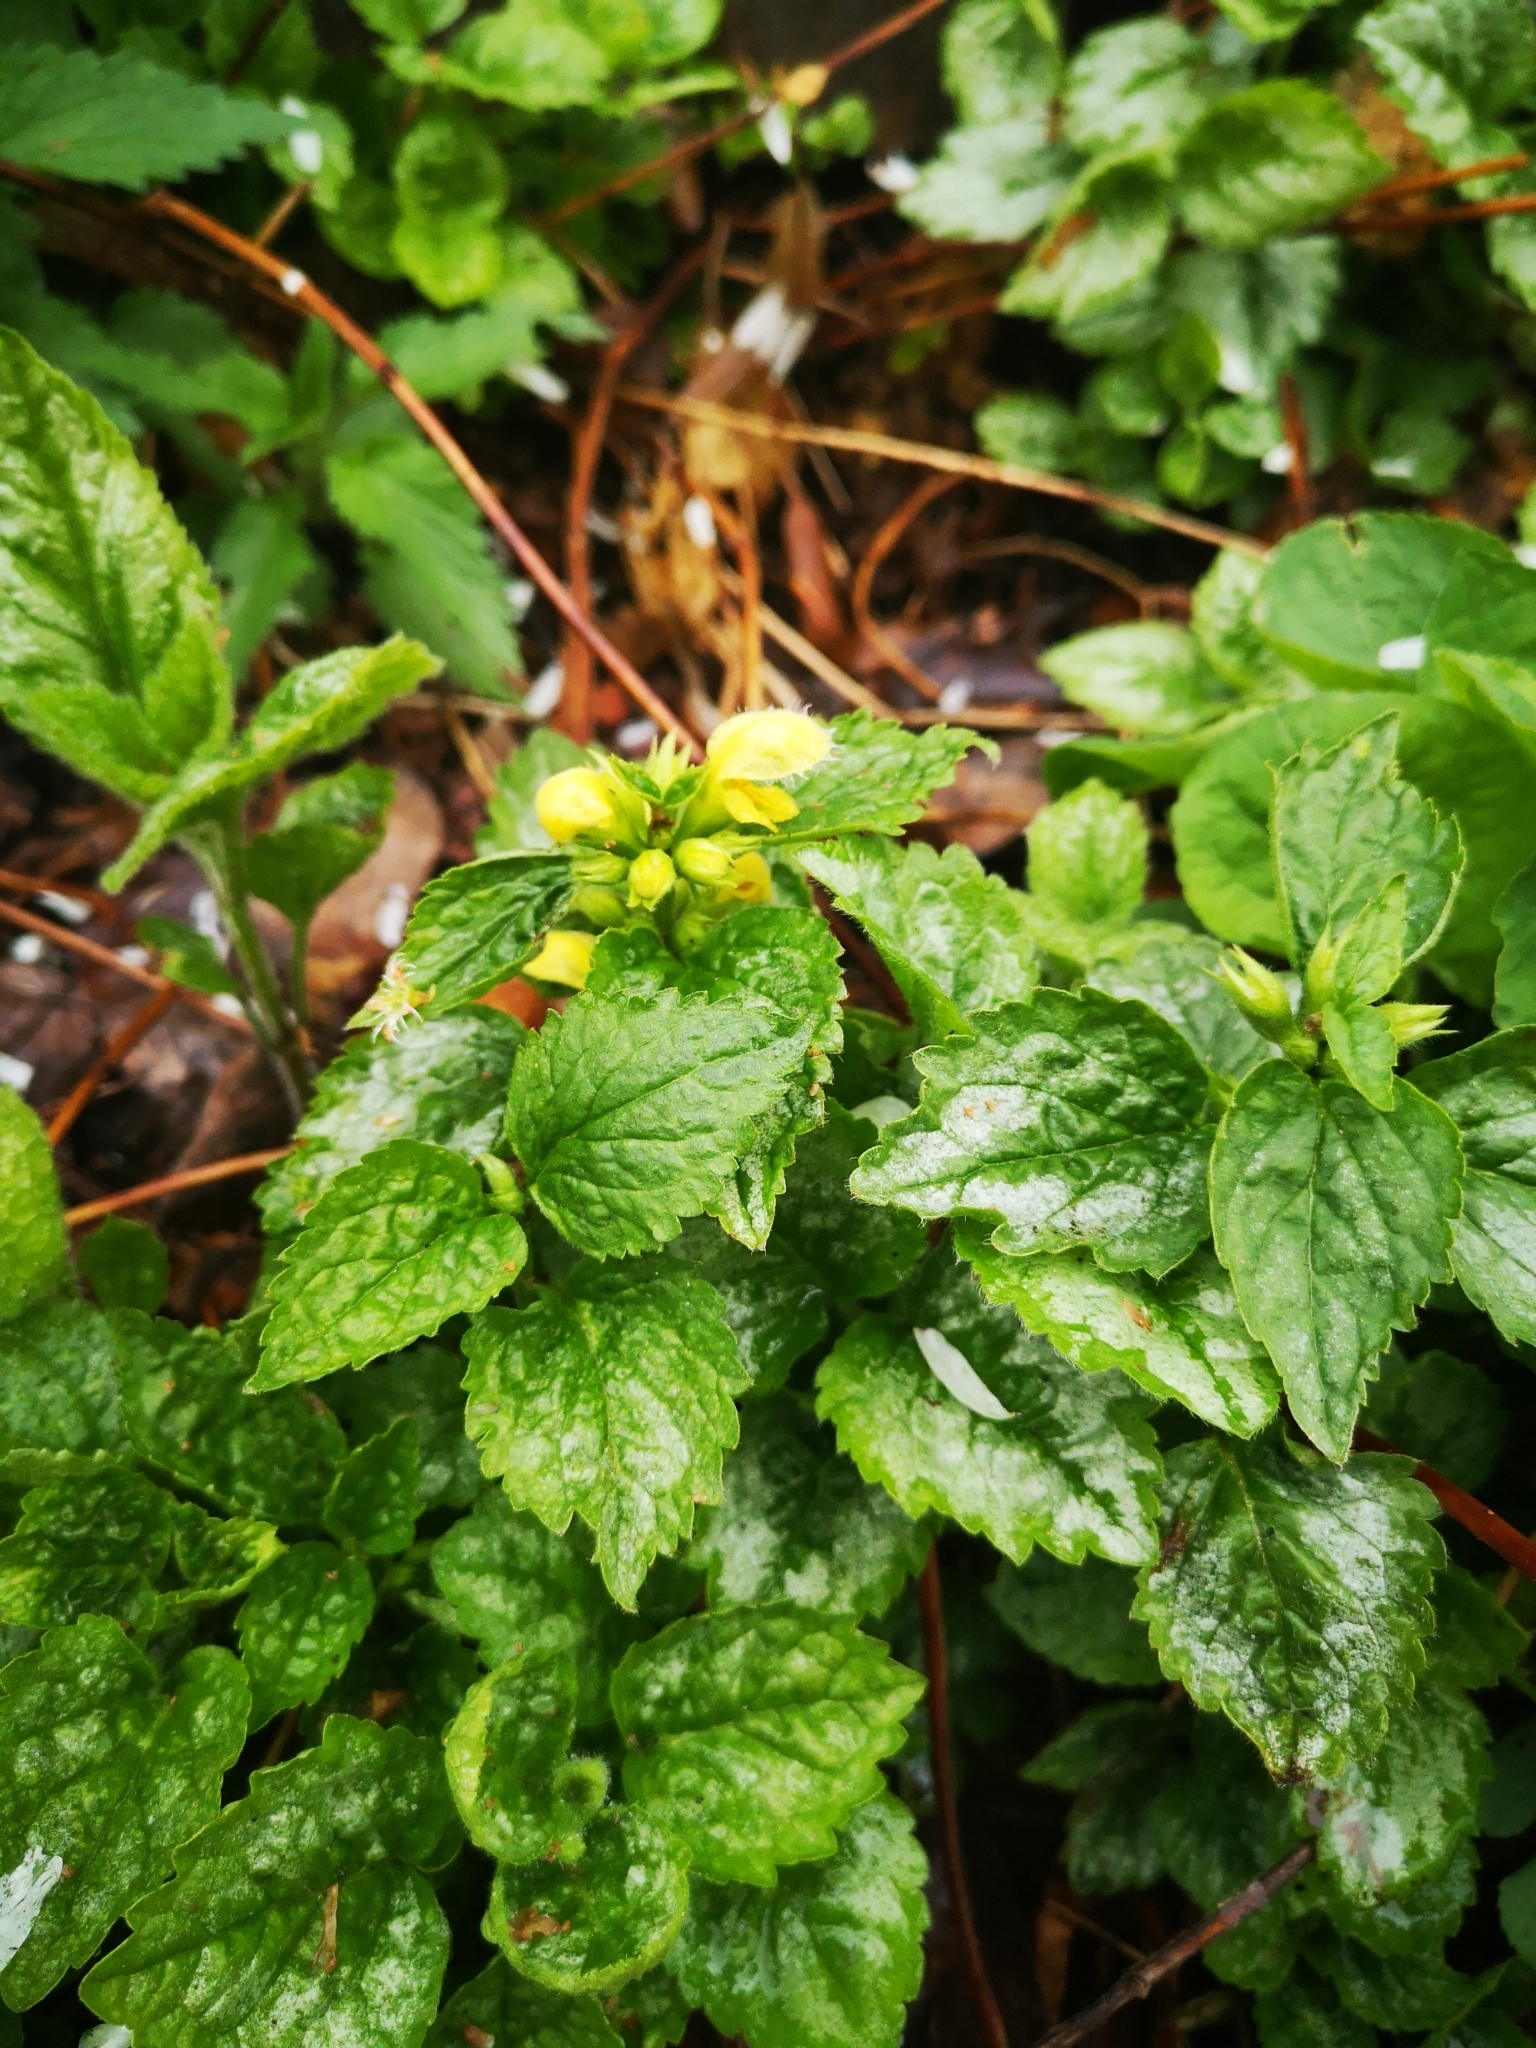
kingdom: Plantae
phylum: Tracheophyta
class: Magnoliopsida
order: Lamiales
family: Lamiaceae
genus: Lamium
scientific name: Lamium galeobdolon
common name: Yellow archangel
